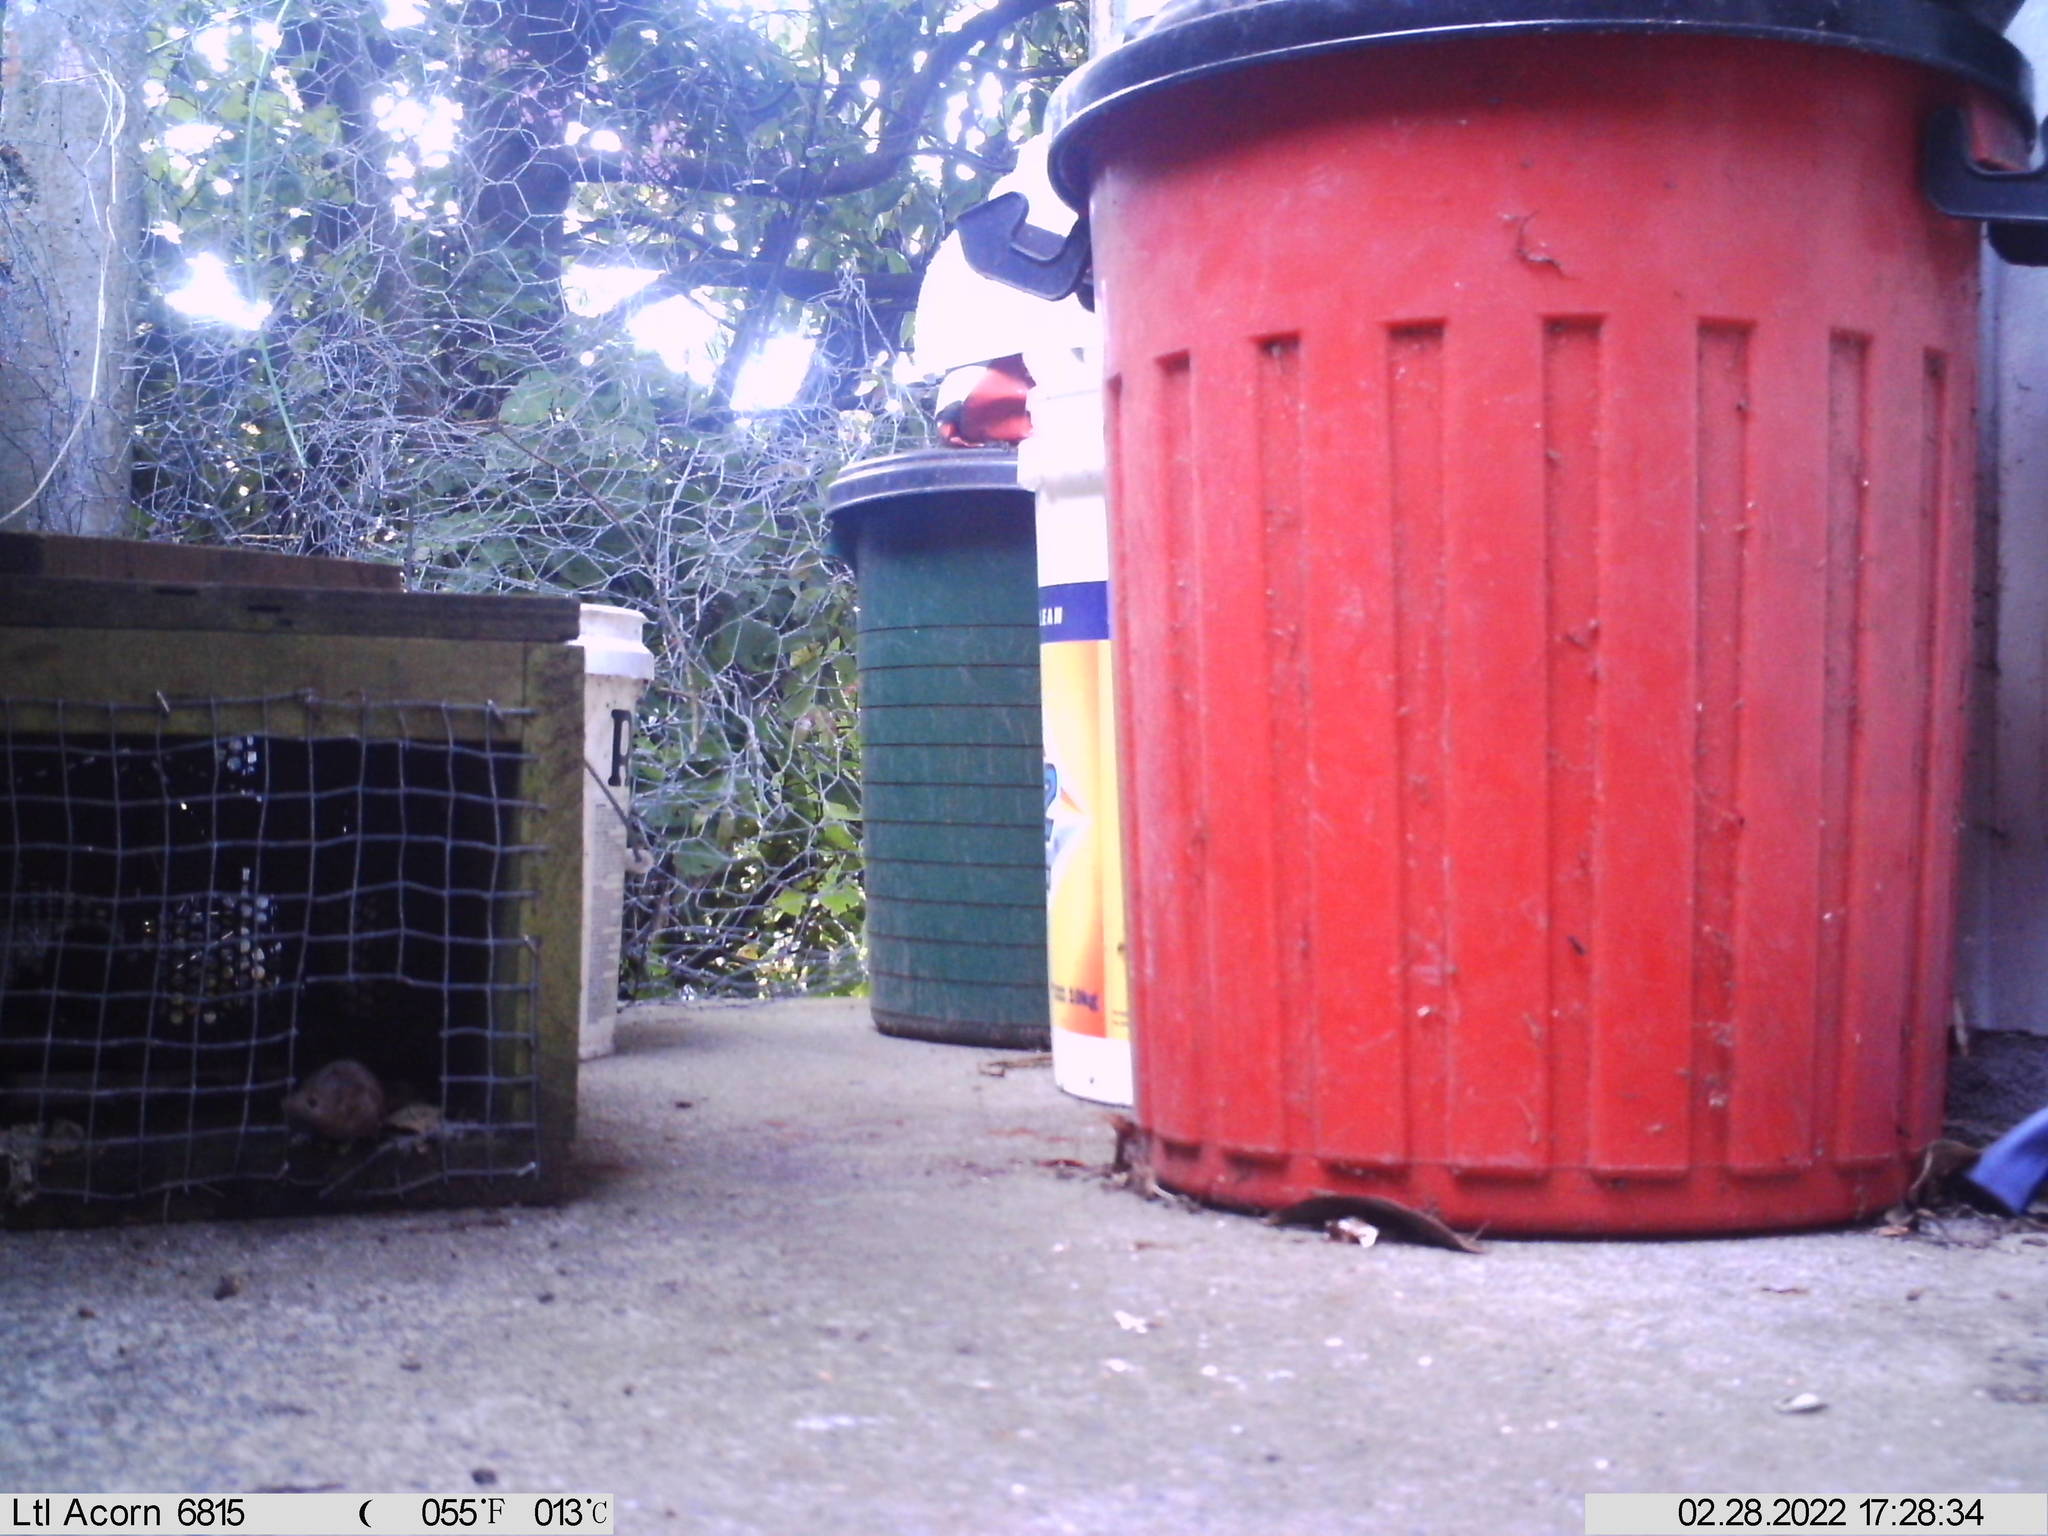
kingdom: Animalia
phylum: Chordata
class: Mammalia
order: Rodentia
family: Muridae
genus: Mus
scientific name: Mus musculus
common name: House mouse
